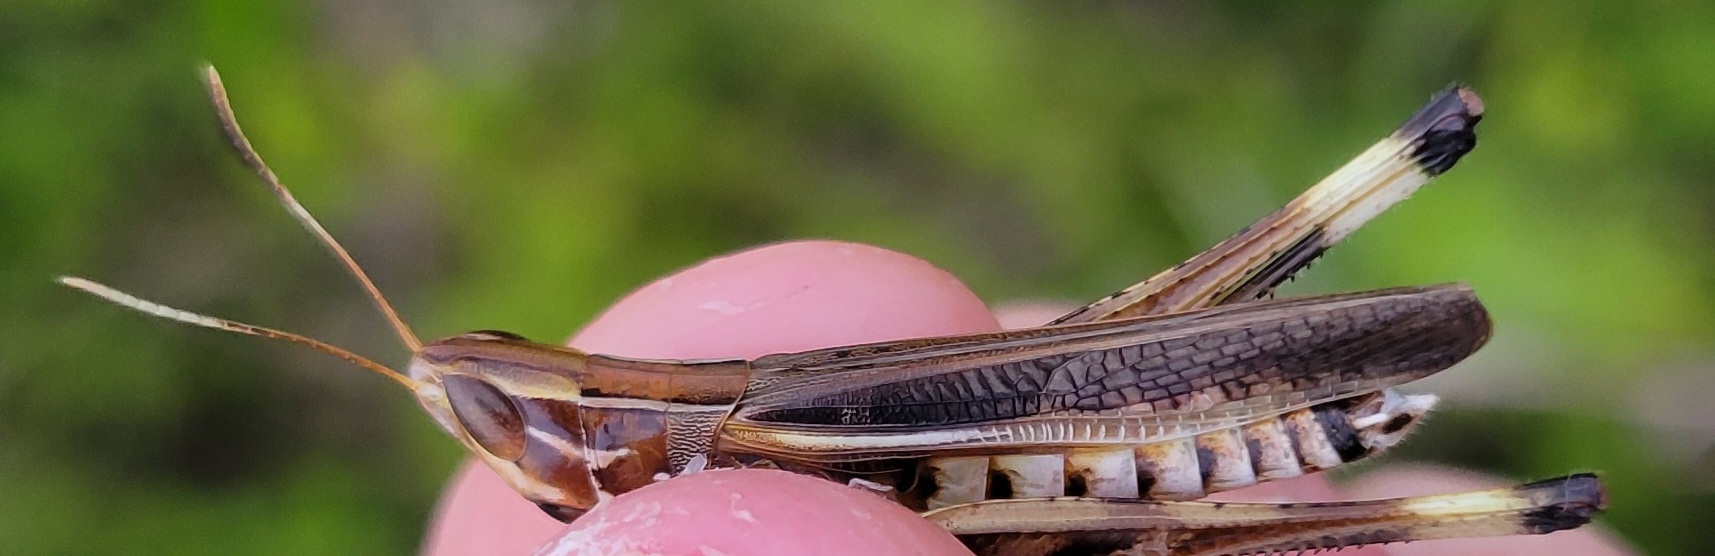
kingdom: Animalia
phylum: Arthropoda
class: Insecta
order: Orthoptera
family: Acrididae
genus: Syrbula
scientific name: Syrbula admirabilis
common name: Handsome grasshopper
